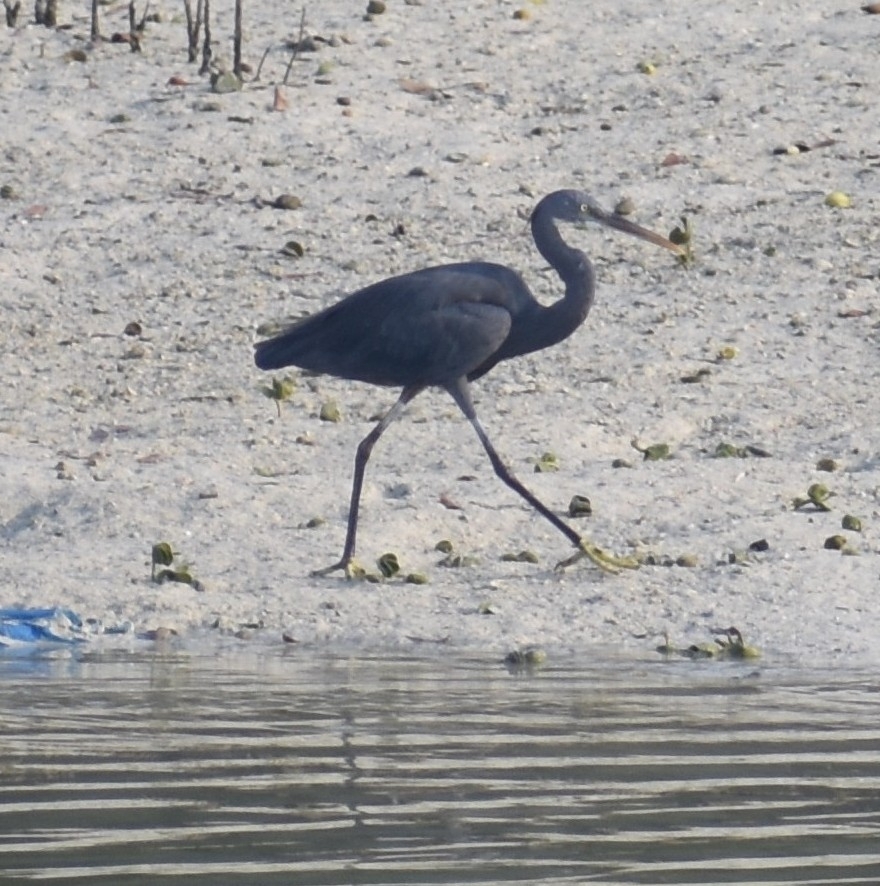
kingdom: Animalia
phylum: Chordata
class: Aves
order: Pelecaniformes
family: Ardeidae
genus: Egretta
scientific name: Egretta gularis
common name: Western reef-heron
